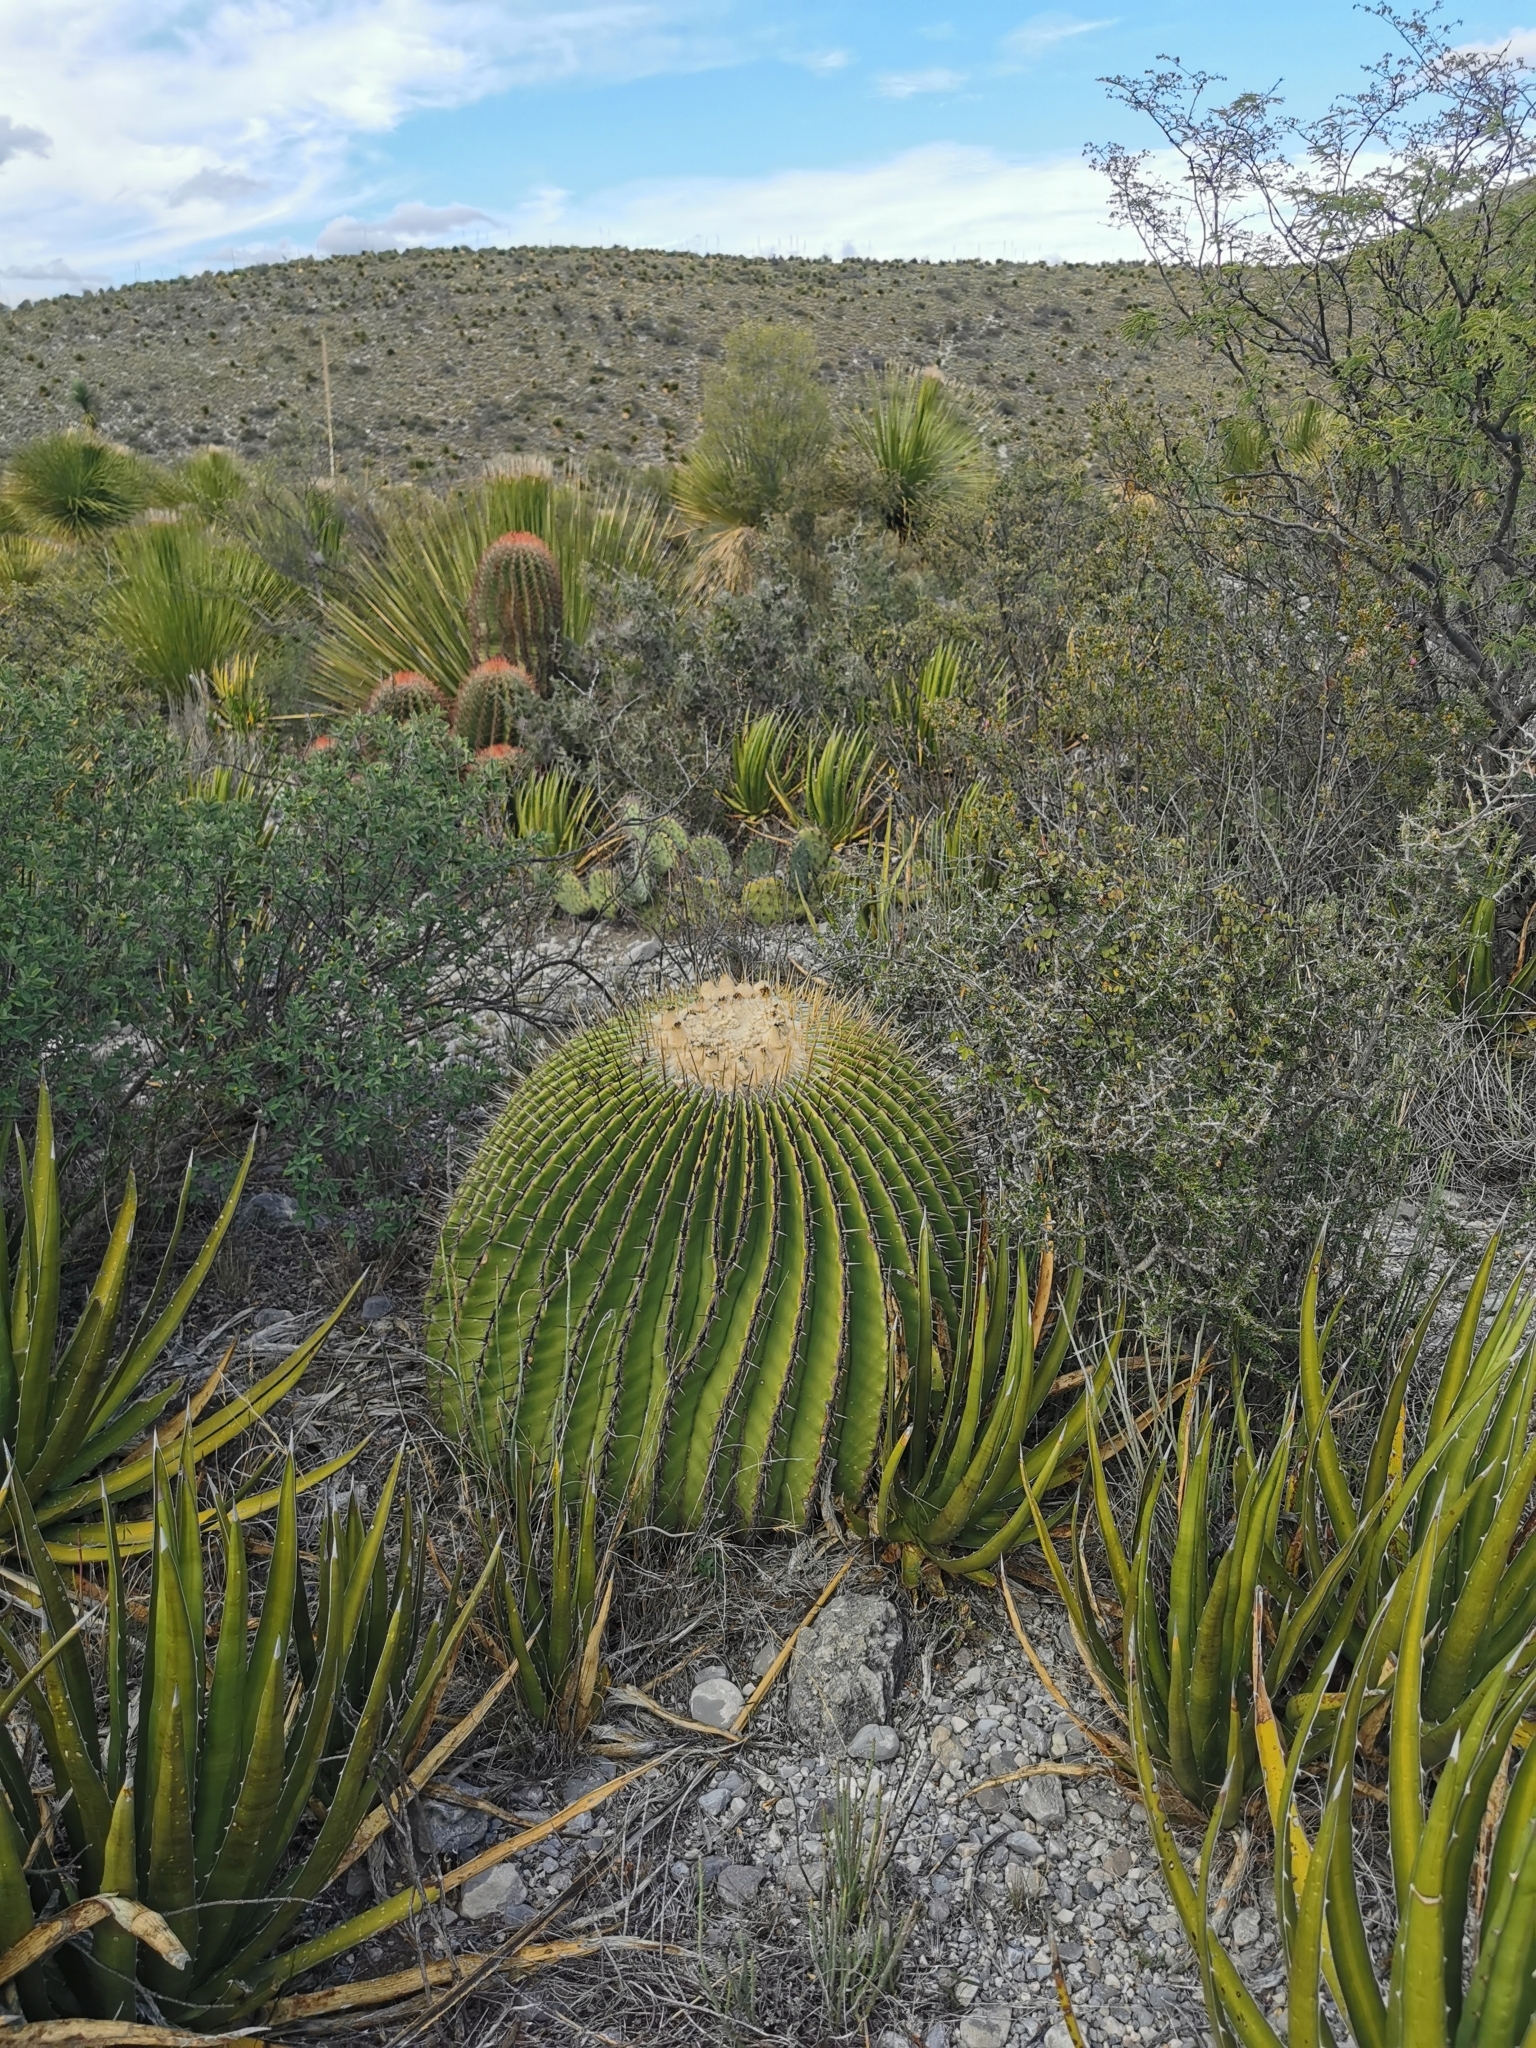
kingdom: Plantae
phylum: Tracheophyta
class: Magnoliopsida
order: Caryophyllales
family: Cactaceae
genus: Echinocactus
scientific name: Echinocactus platyacanthus
